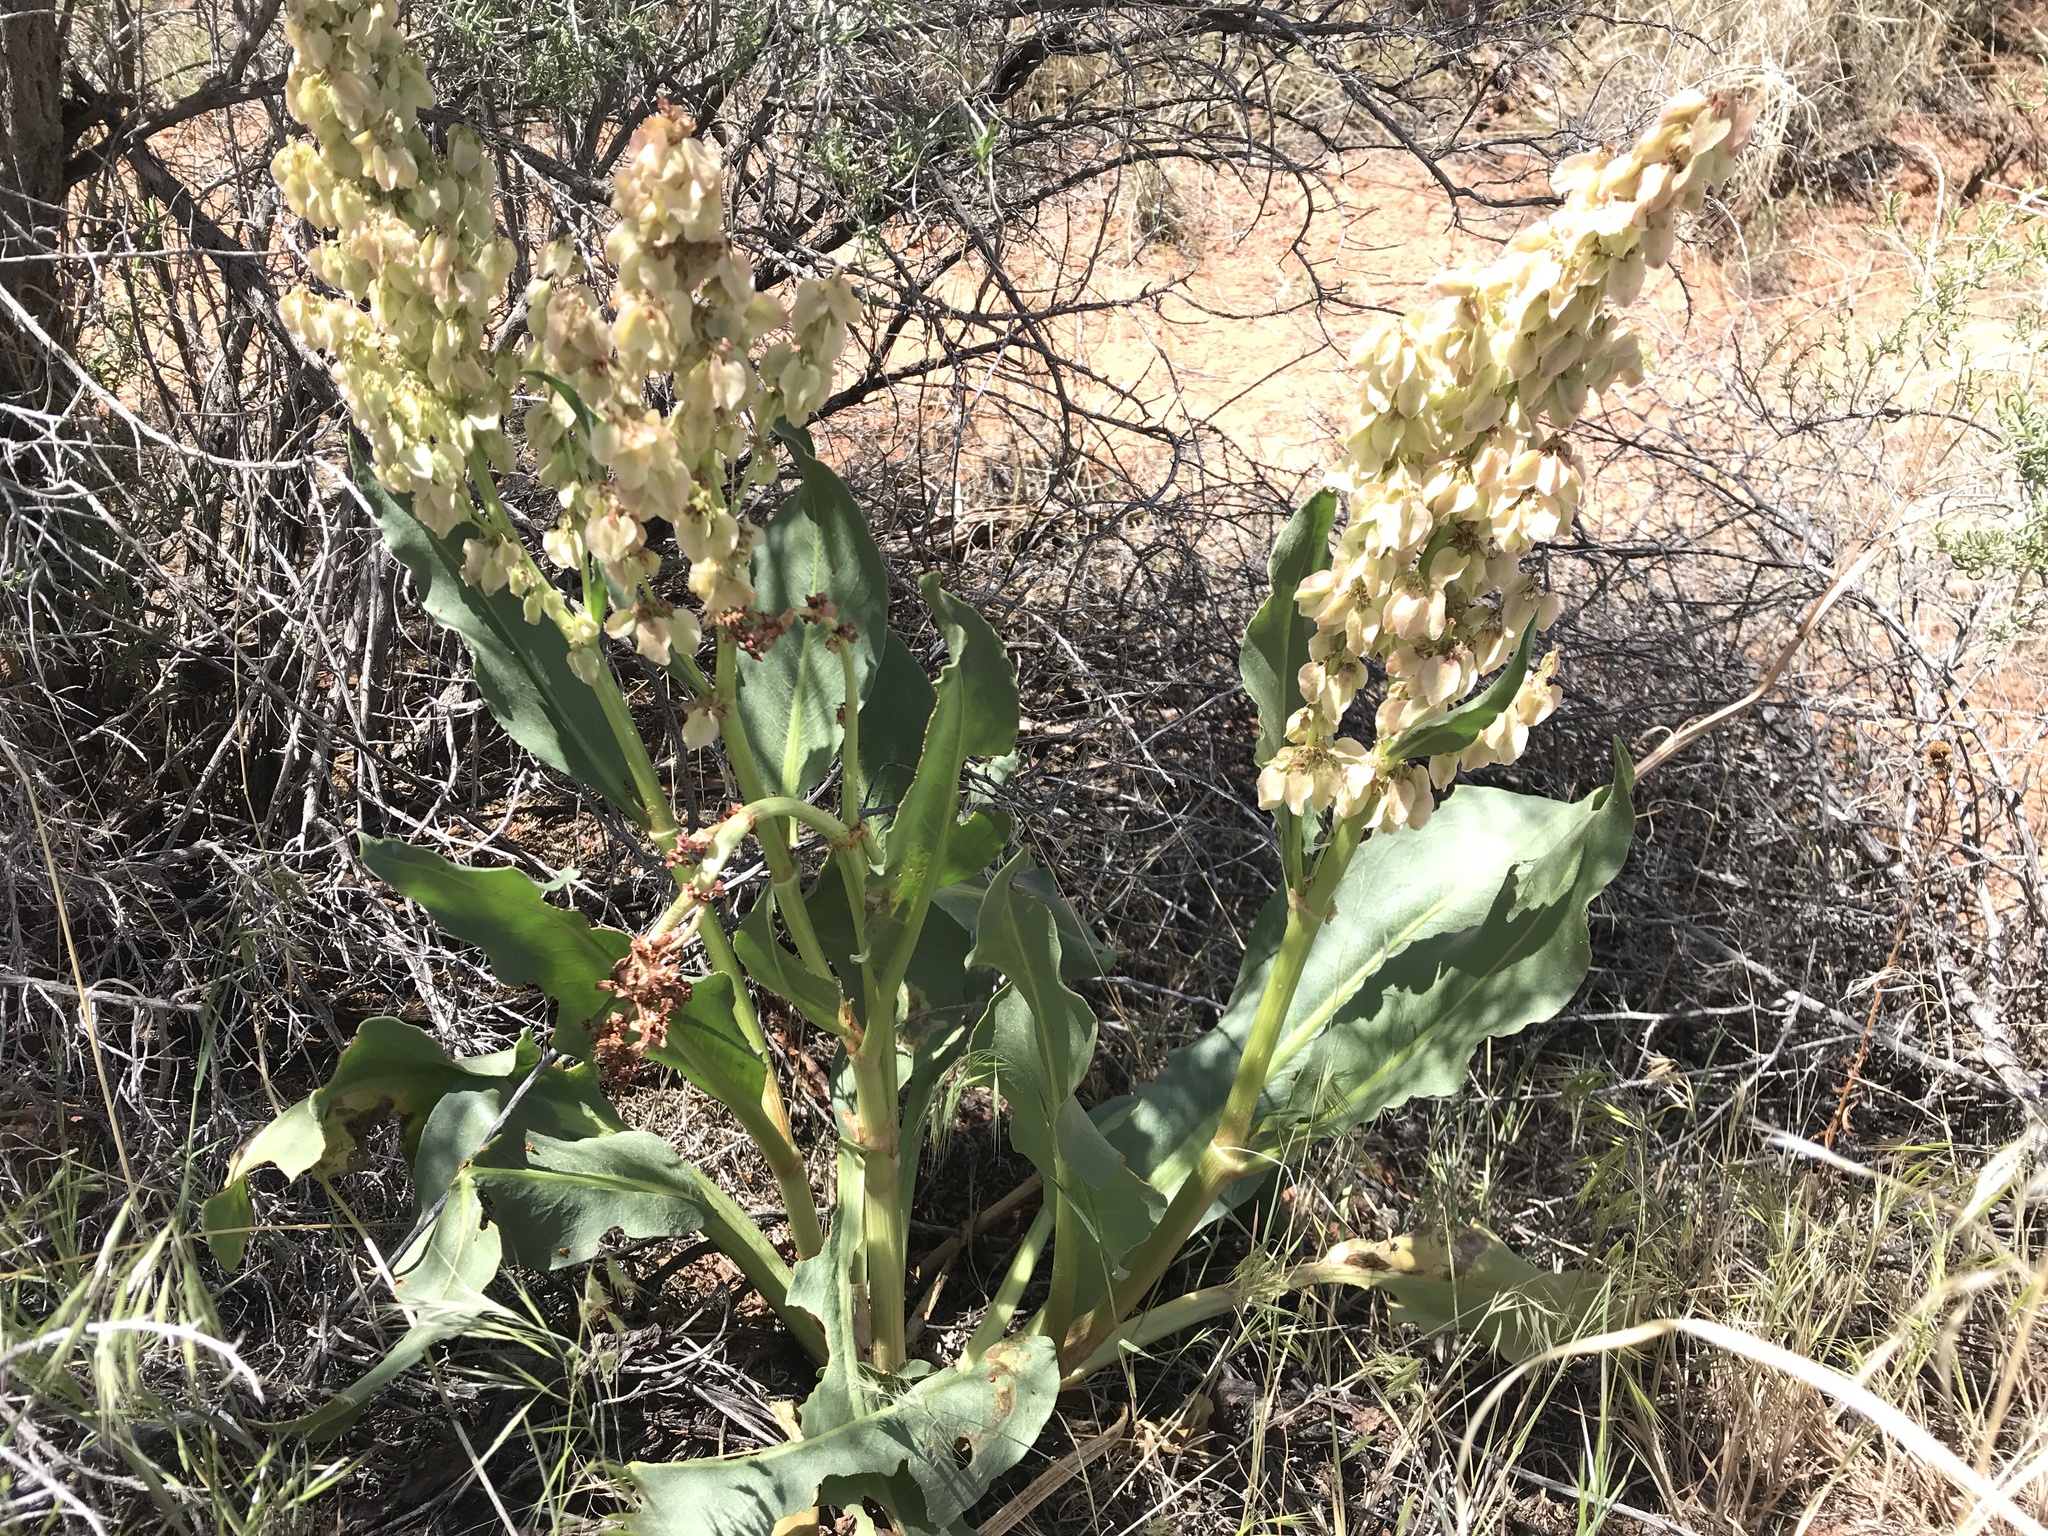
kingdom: Plantae
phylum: Tracheophyta
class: Magnoliopsida
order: Caryophyllales
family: Polygonaceae
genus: Rumex
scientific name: Rumex hymenosepalus
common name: Ganagra
